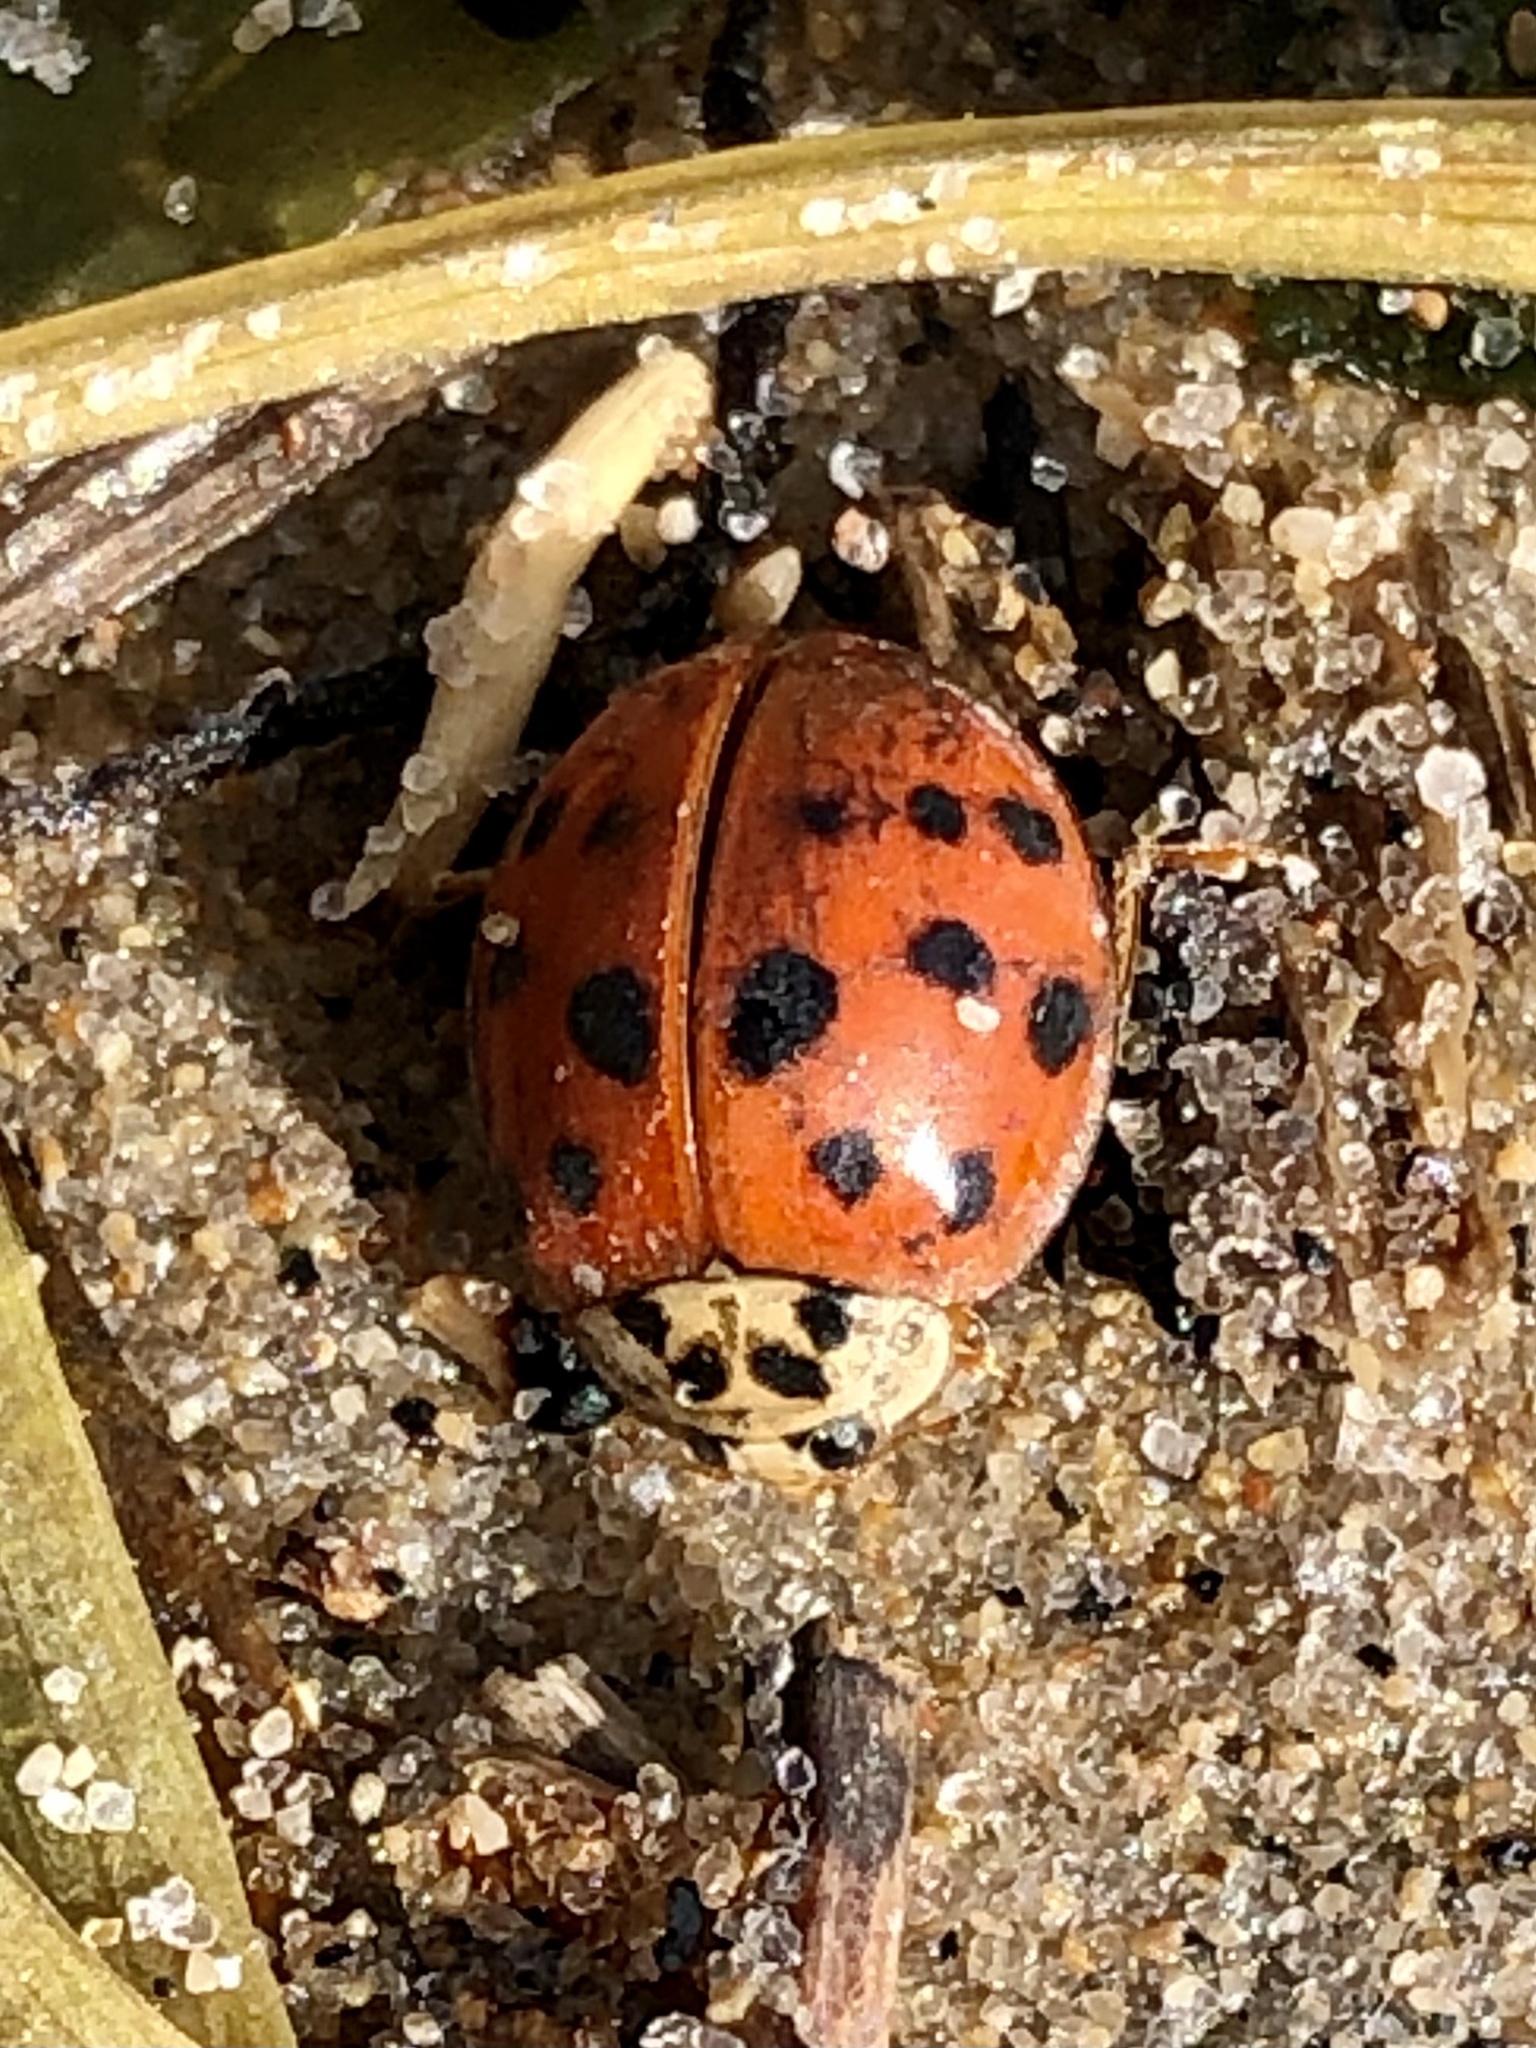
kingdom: Animalia
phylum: Arthropoda
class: Insecta
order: Coleoptera
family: Coccinellidae
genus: Harmonia
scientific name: Harmonia axyridis
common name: Harlequin ladybird
